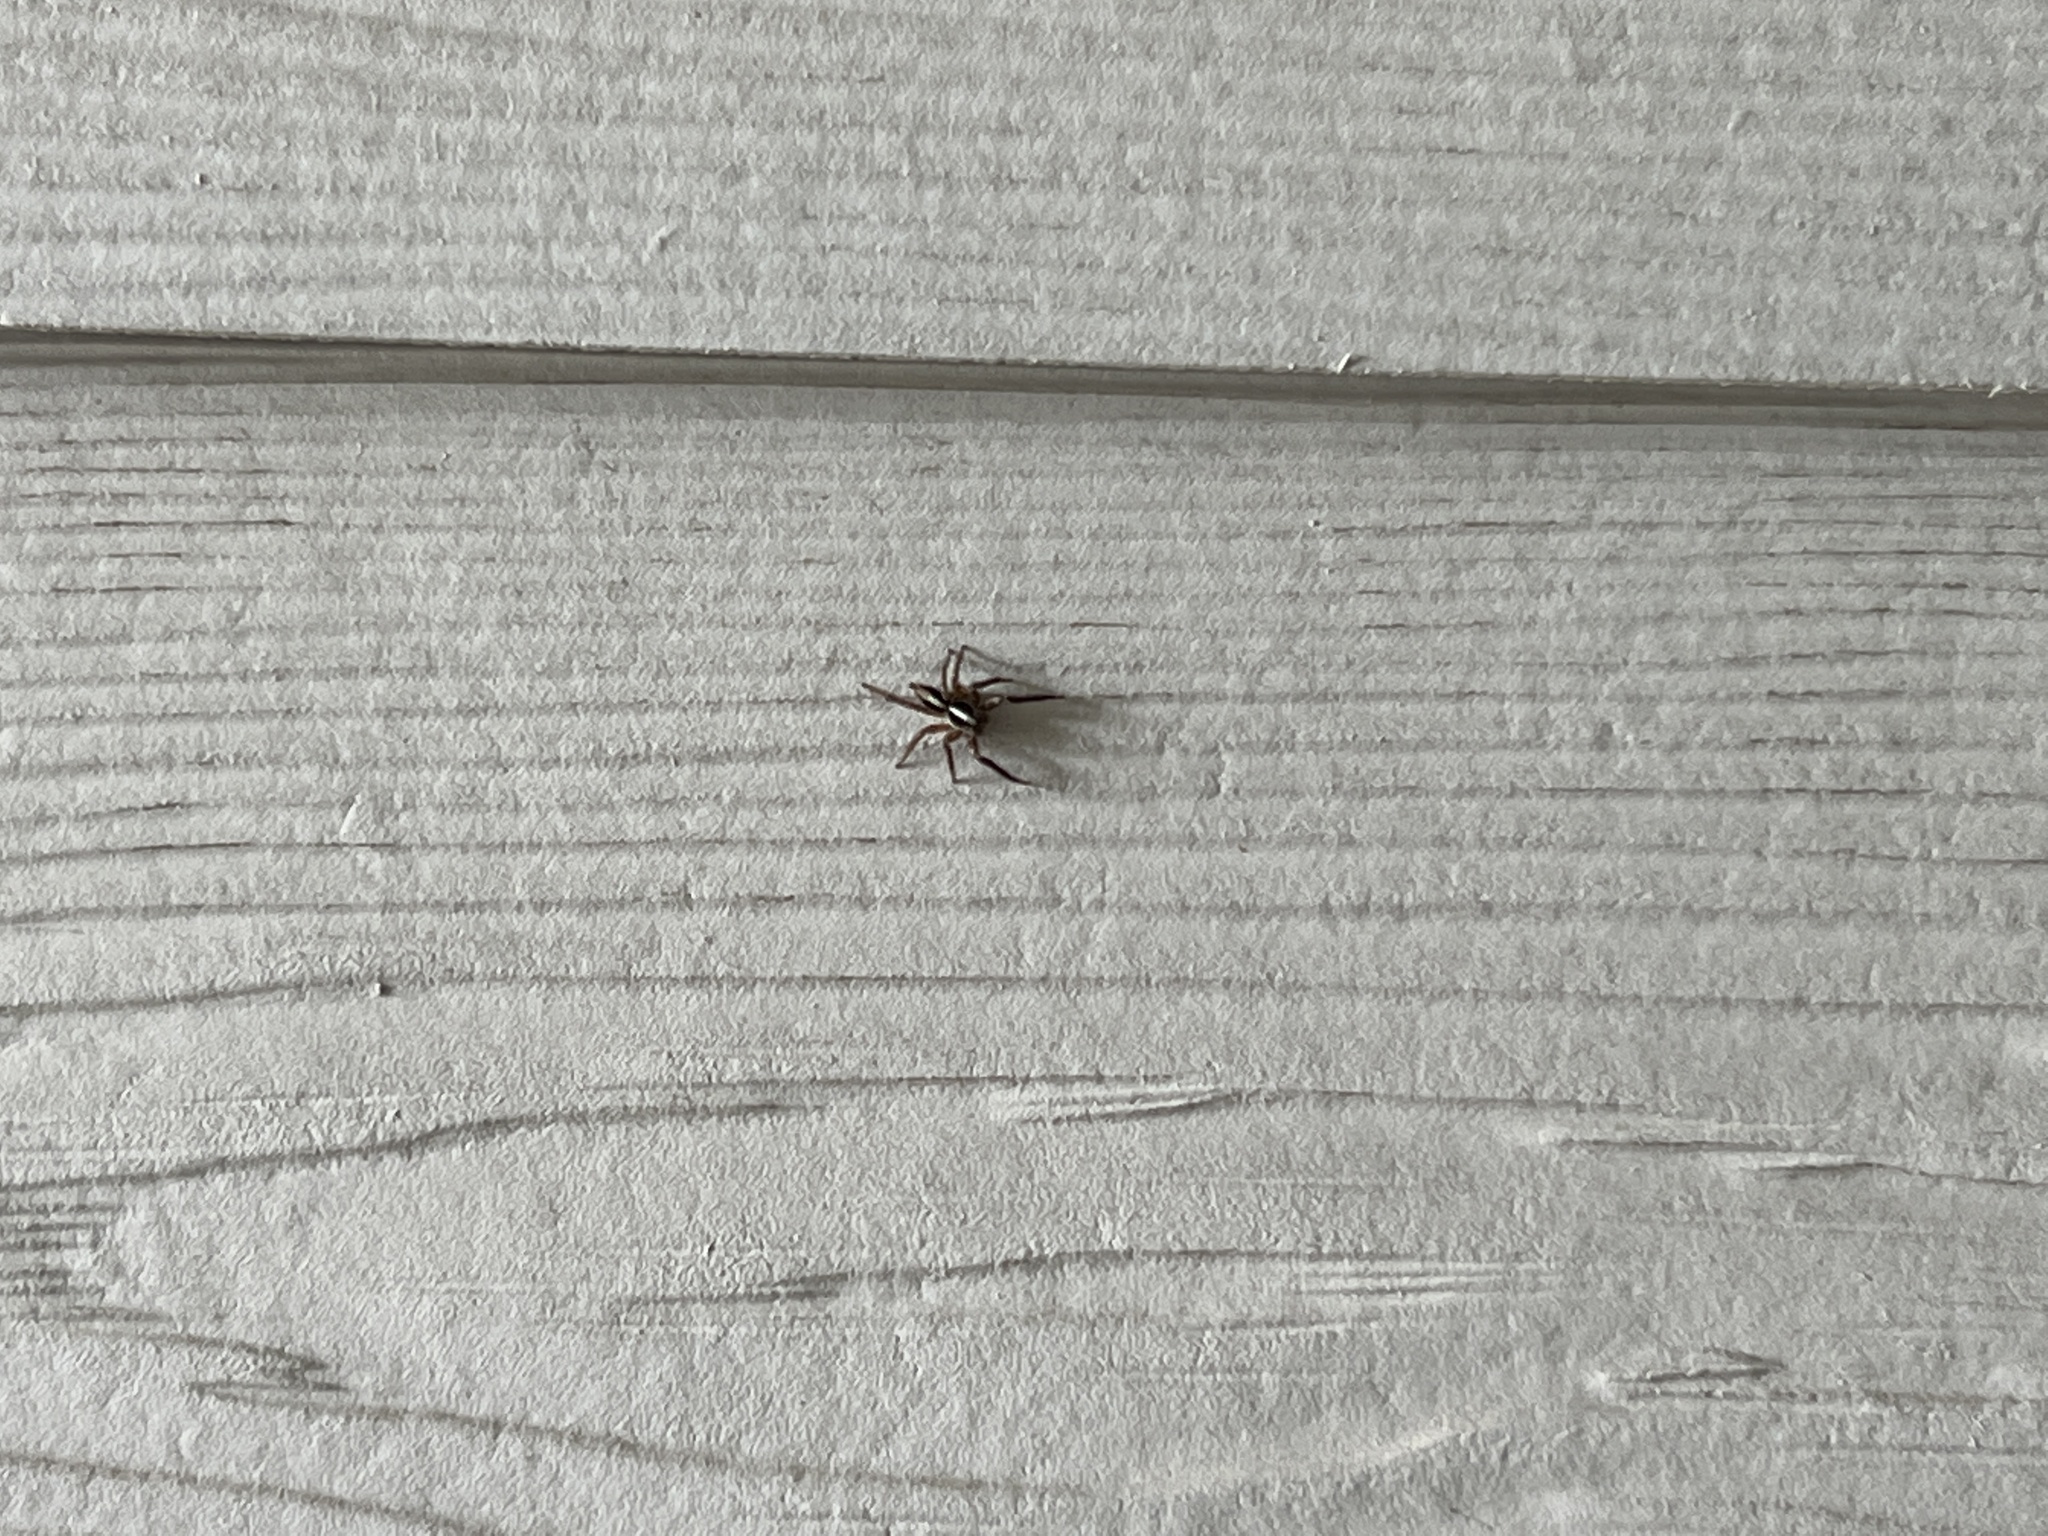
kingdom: Animalia
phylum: Arthropoda
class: Arachnida
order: Araneae
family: Salticidae
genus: Plexippus
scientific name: Plexippus paykulli
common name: Pantropical jumper
